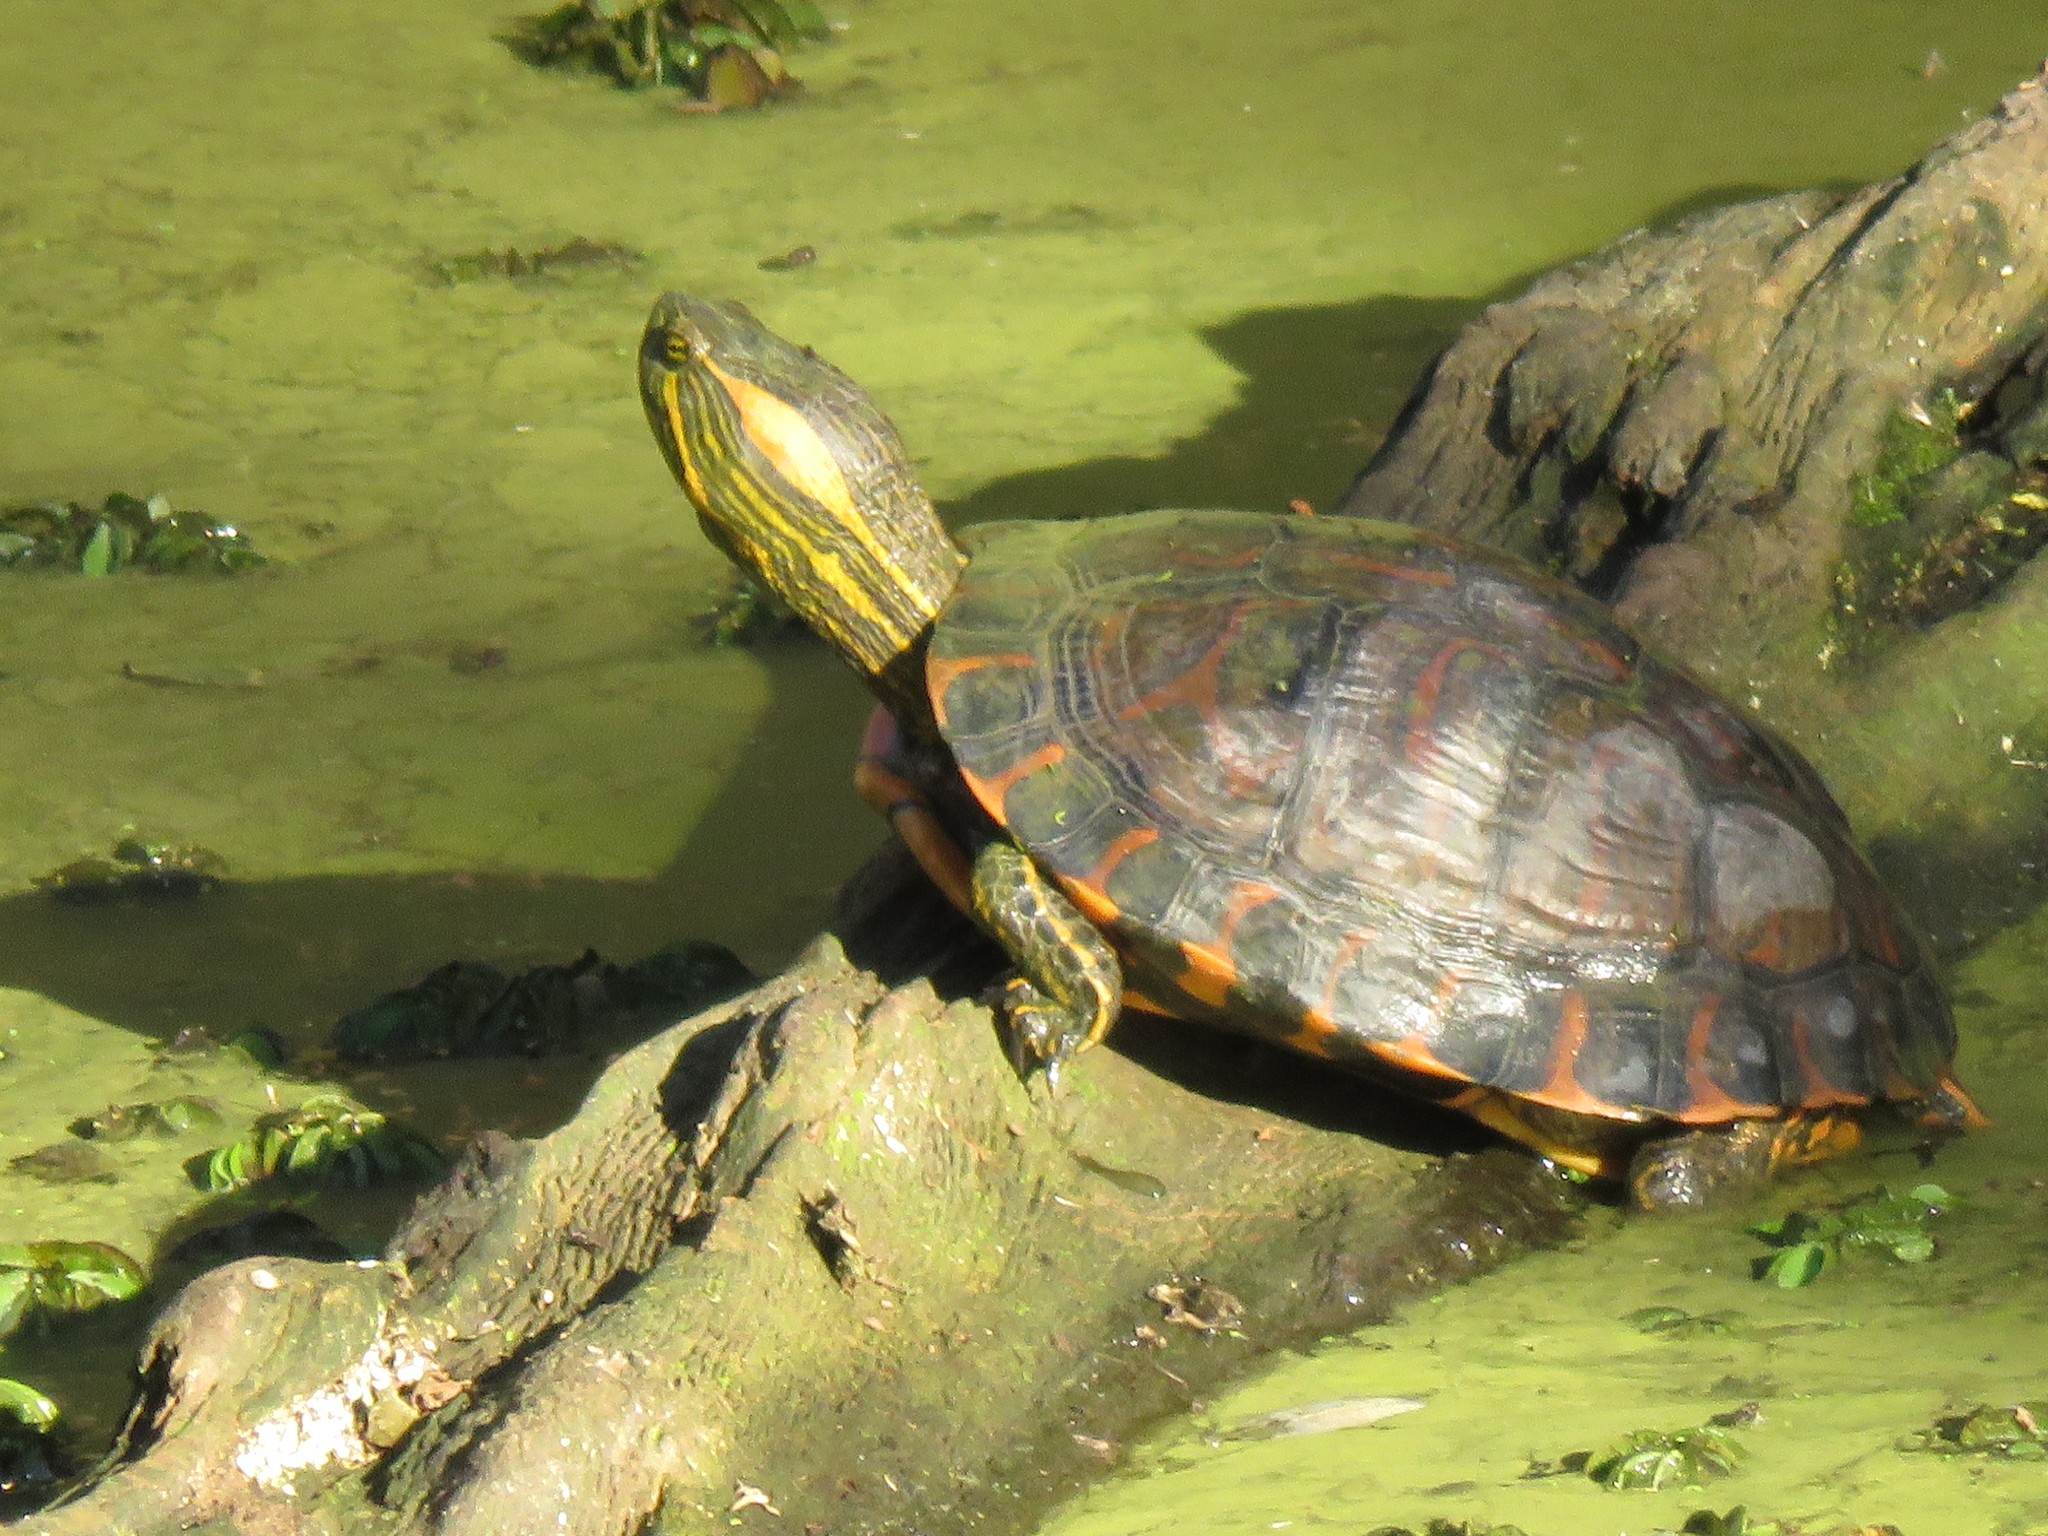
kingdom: Animalia
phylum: Chordata
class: Testudines
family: Emydidae
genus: Trachemys
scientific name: Trachemys dorbigni
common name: Black-bellied slider
